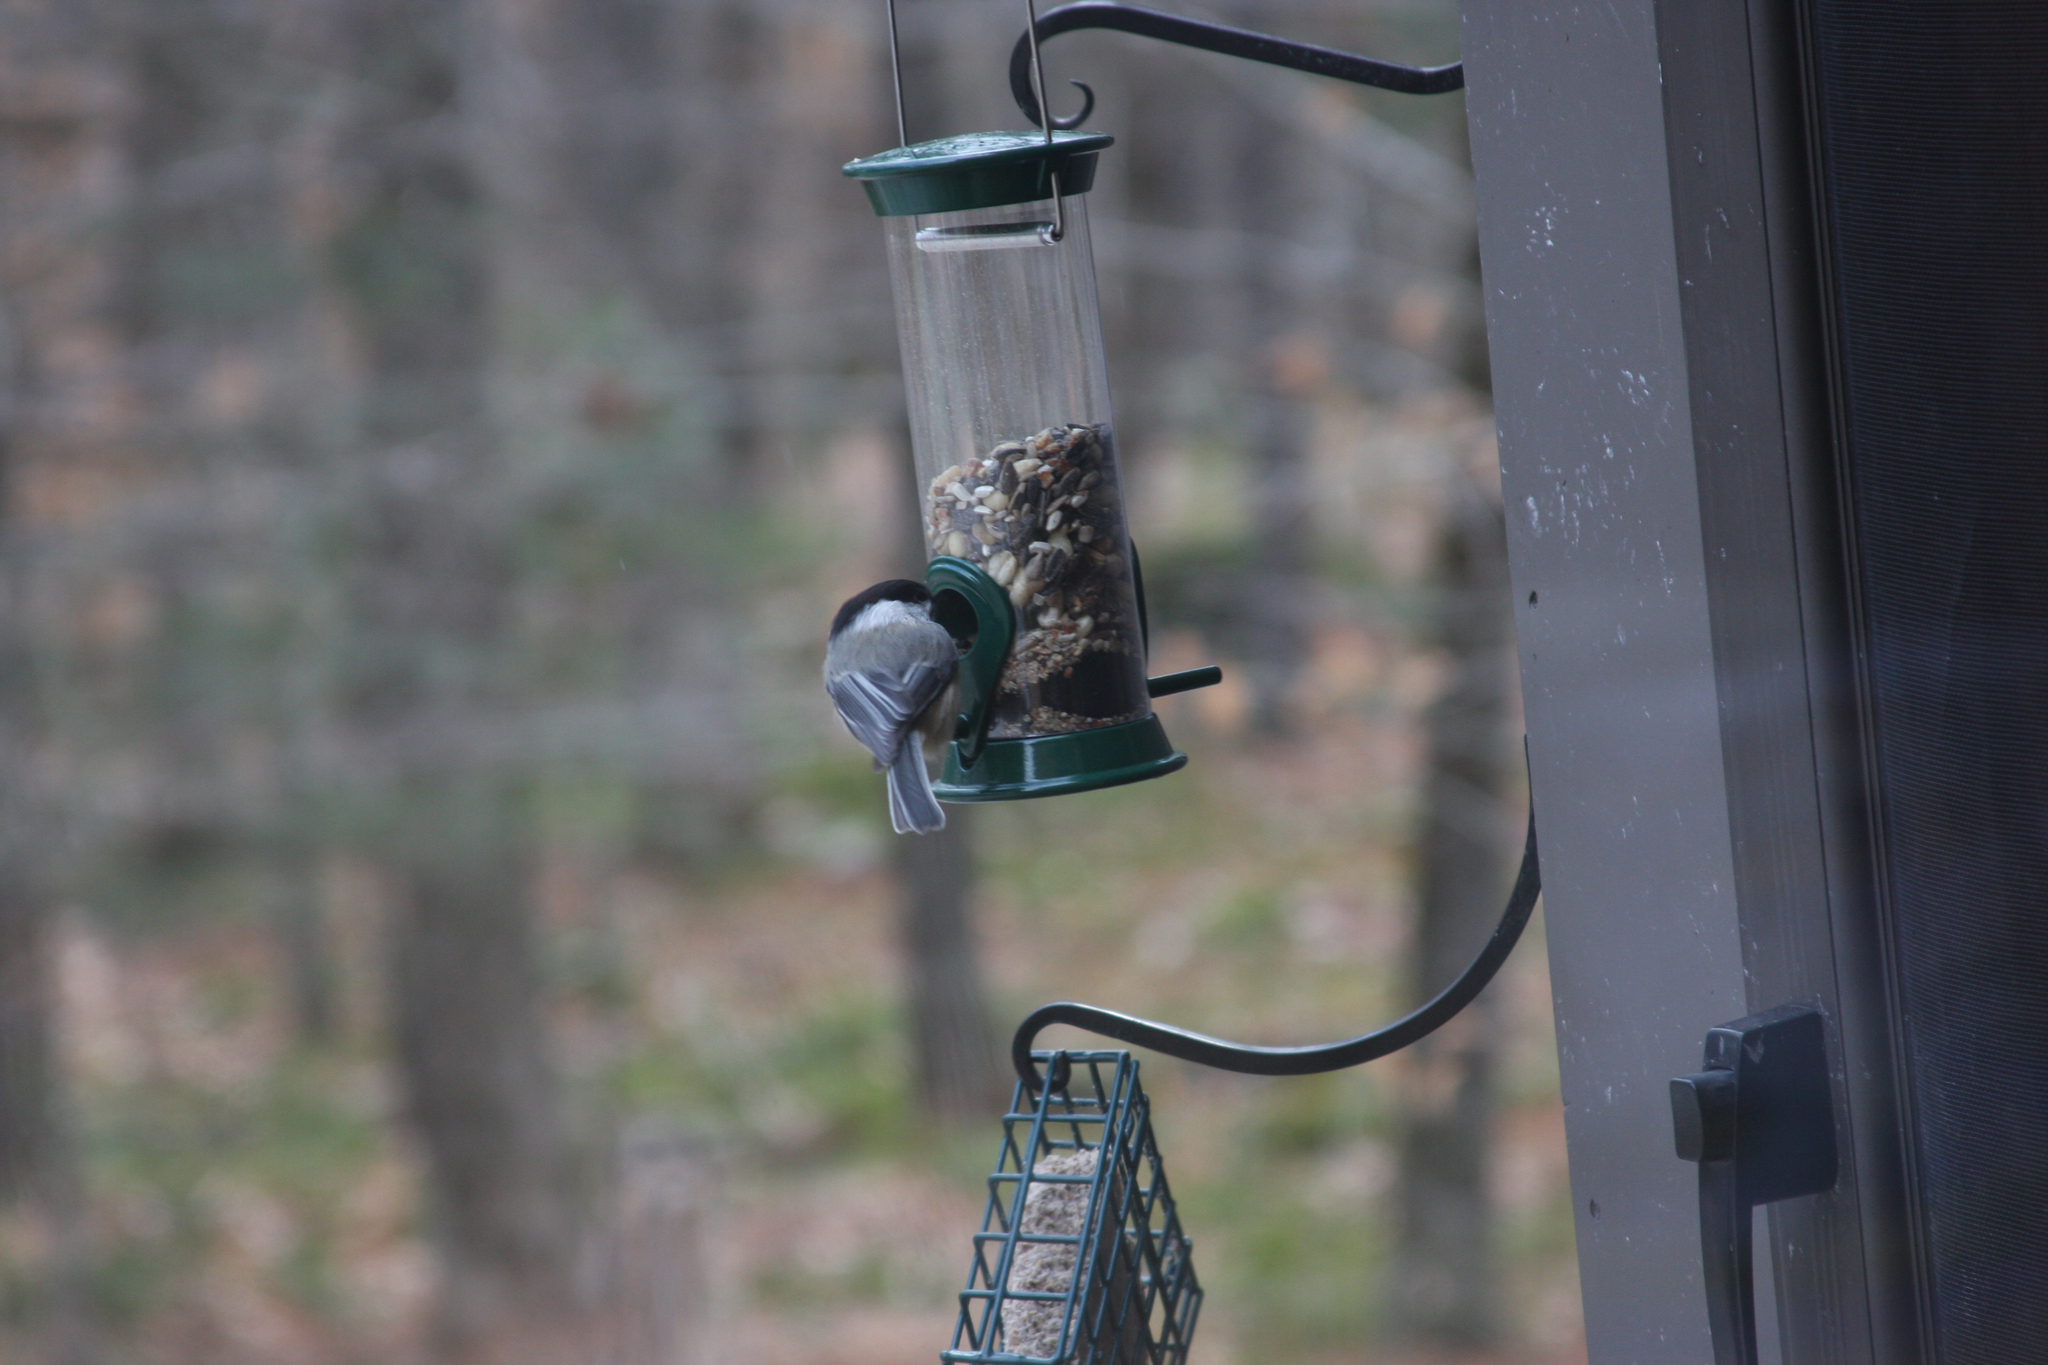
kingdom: Animalia
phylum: Chordata
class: Aves
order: Passeriformes
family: Paridae
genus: Poecile
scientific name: Poecile atricapillus
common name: Black-capped chickadee
